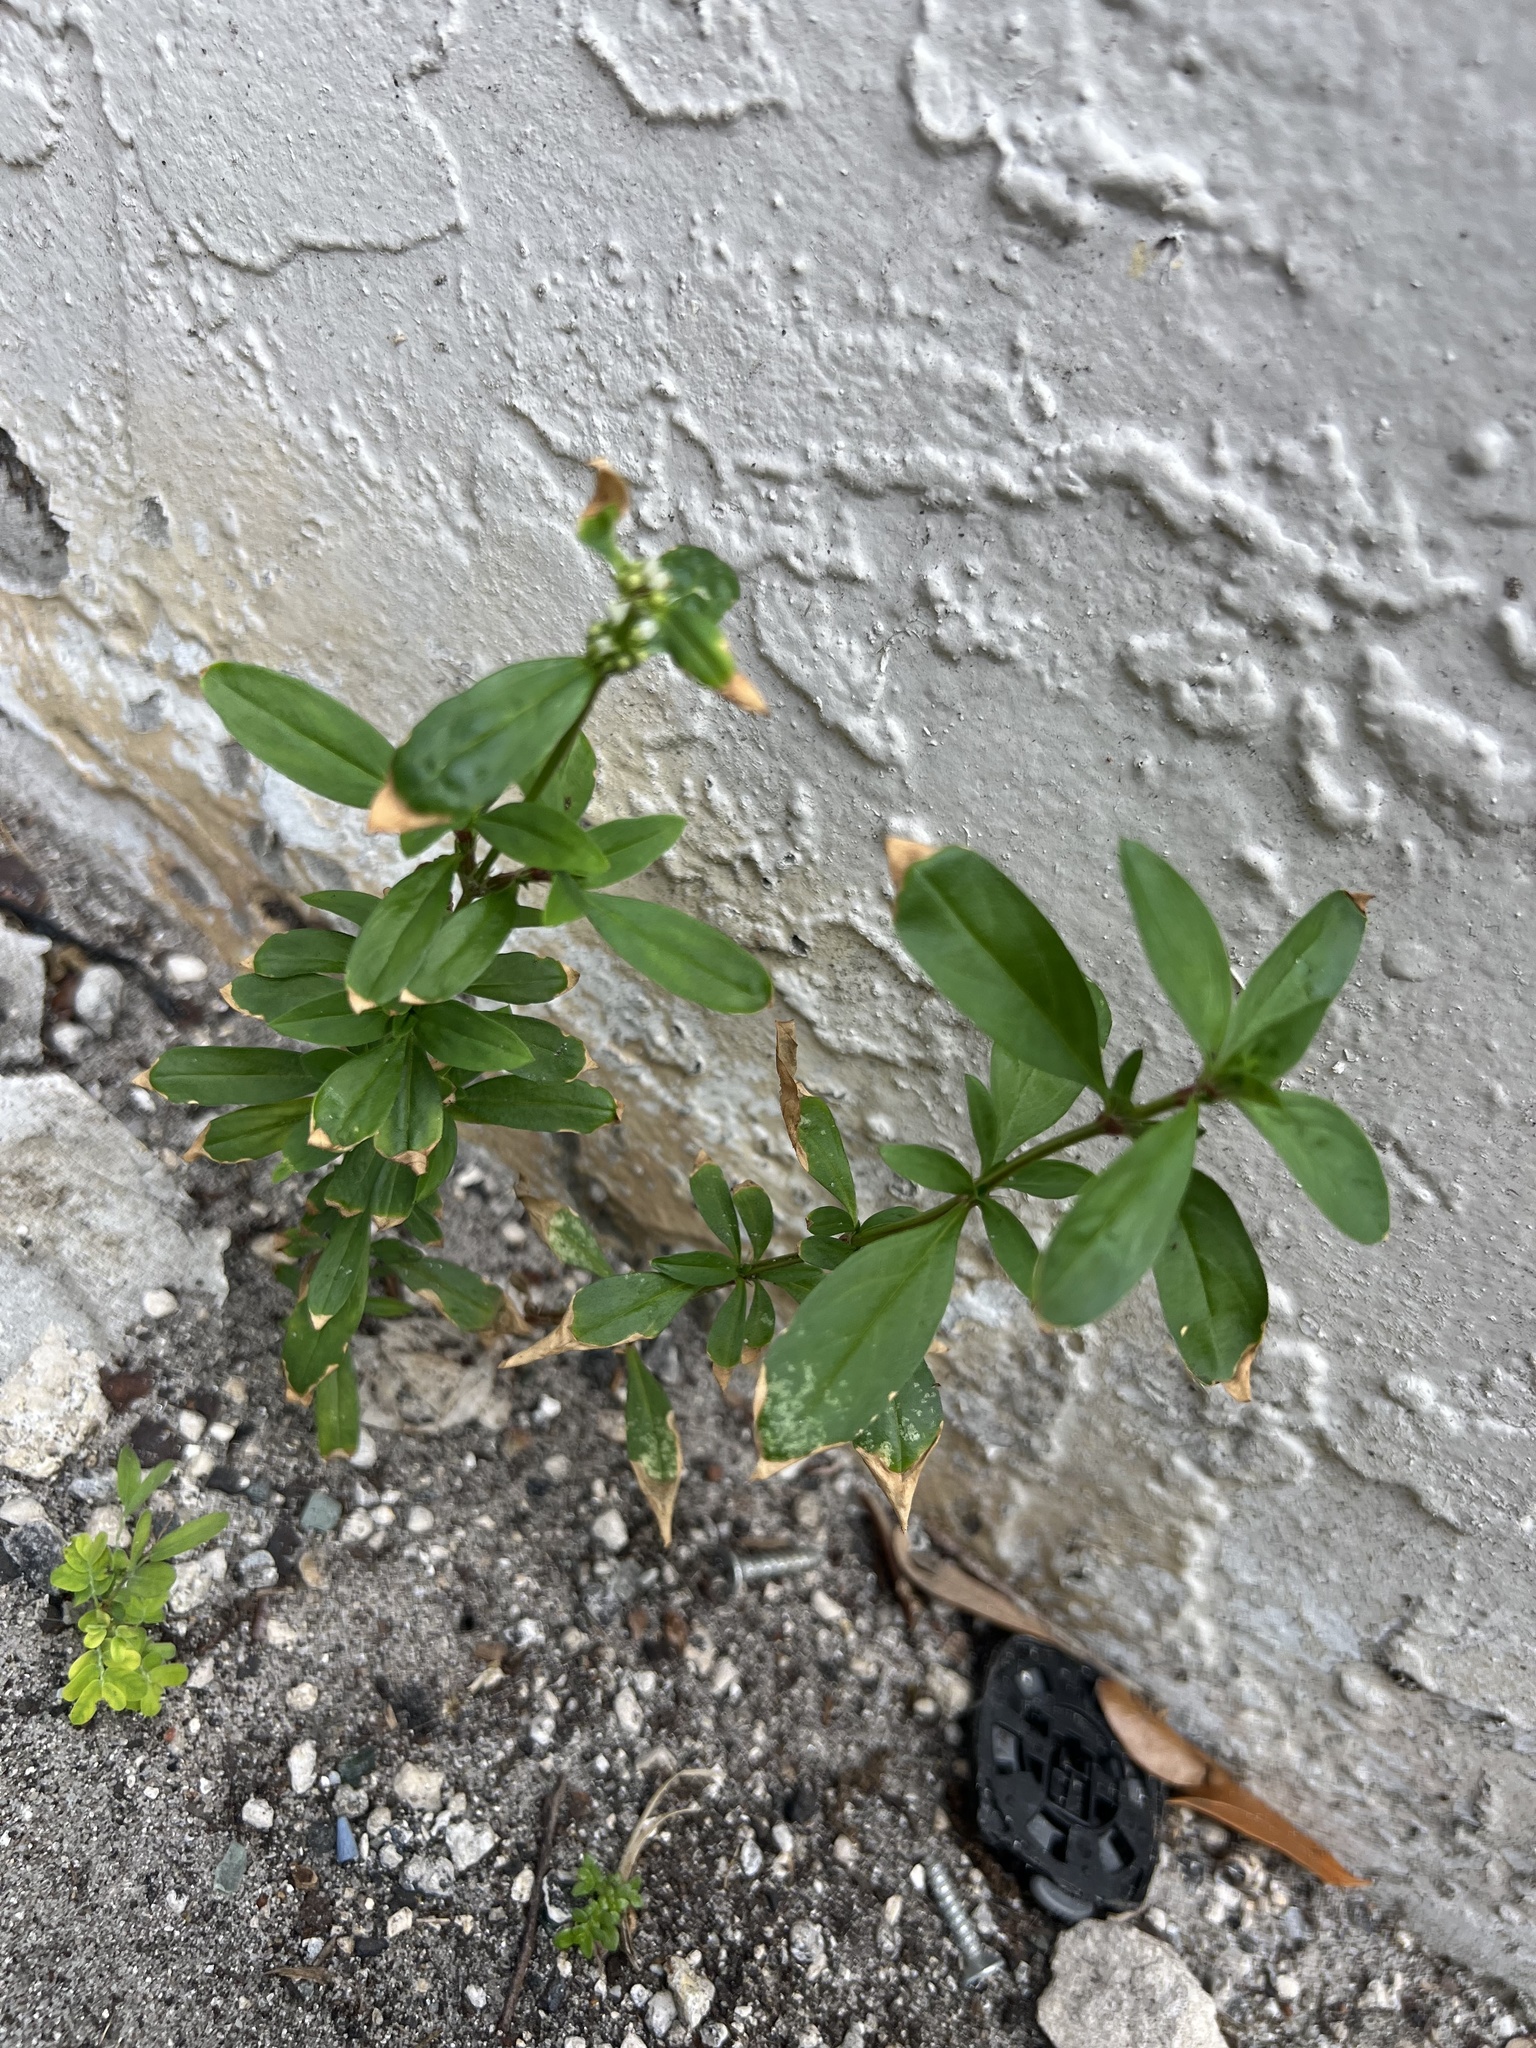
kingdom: Plantae
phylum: Tracheophyta
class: Magnoliopsida
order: Gentianales
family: Rubiaceae
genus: Spermacoce
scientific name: Spermacoce verticillata
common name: Shrubby false buttonweed
